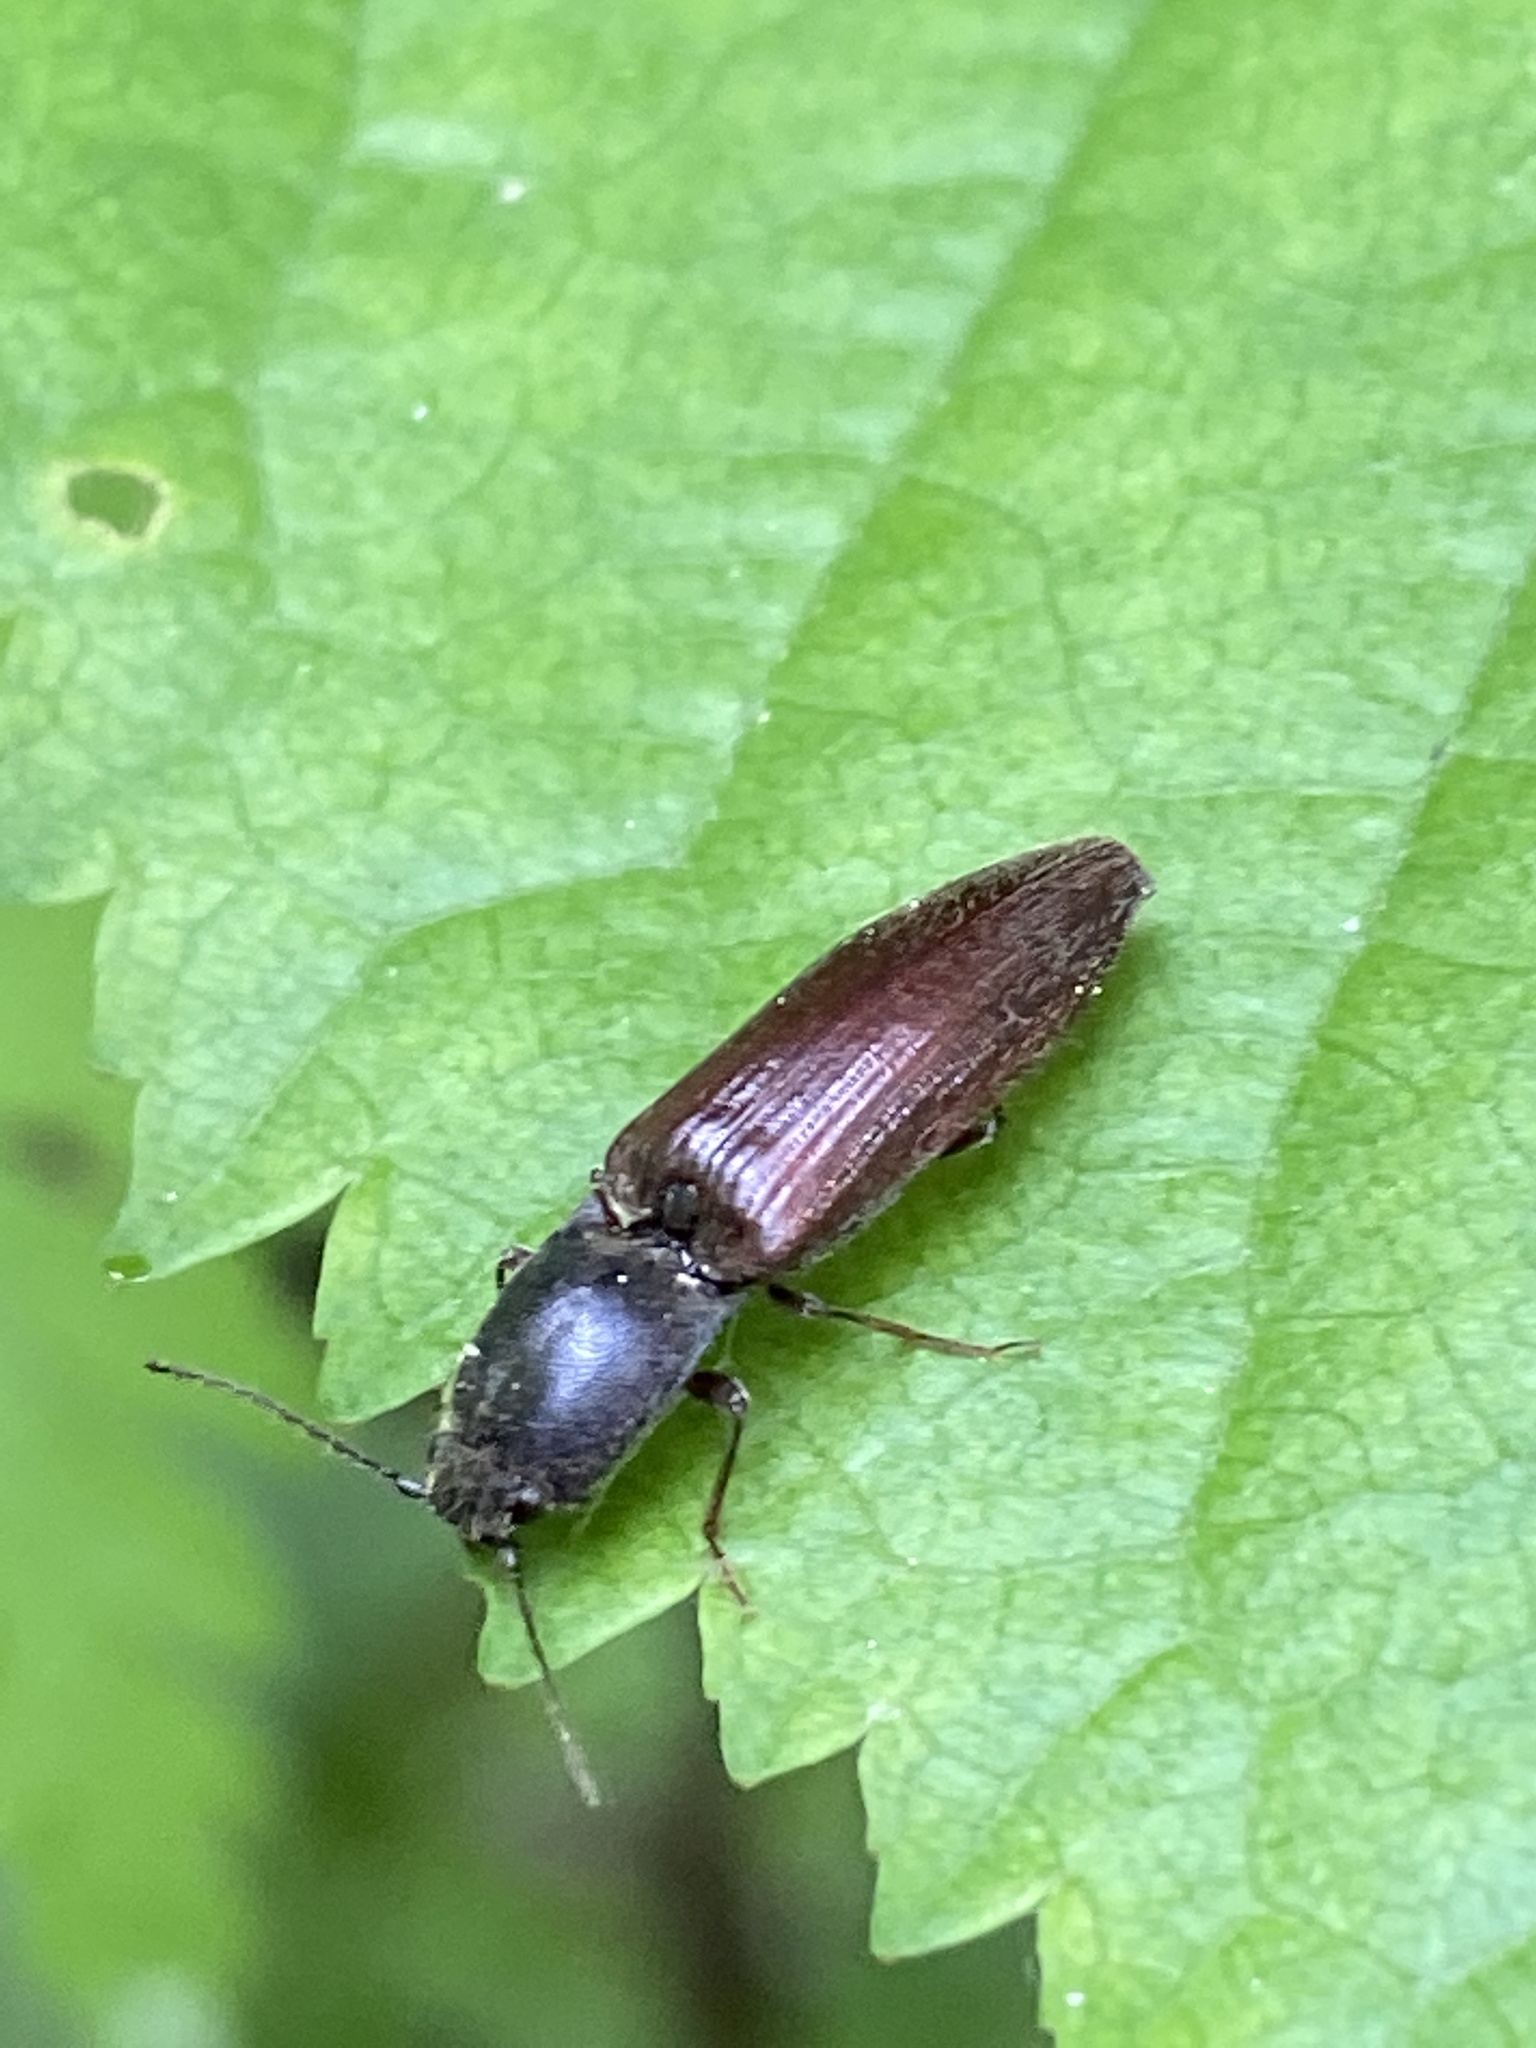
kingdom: Animalia
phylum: Arthropoda
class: Insecta
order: Coleoptera
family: Elateridae
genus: Athous
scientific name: Athous haemorrhoidalis
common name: Red-brown click beetle
